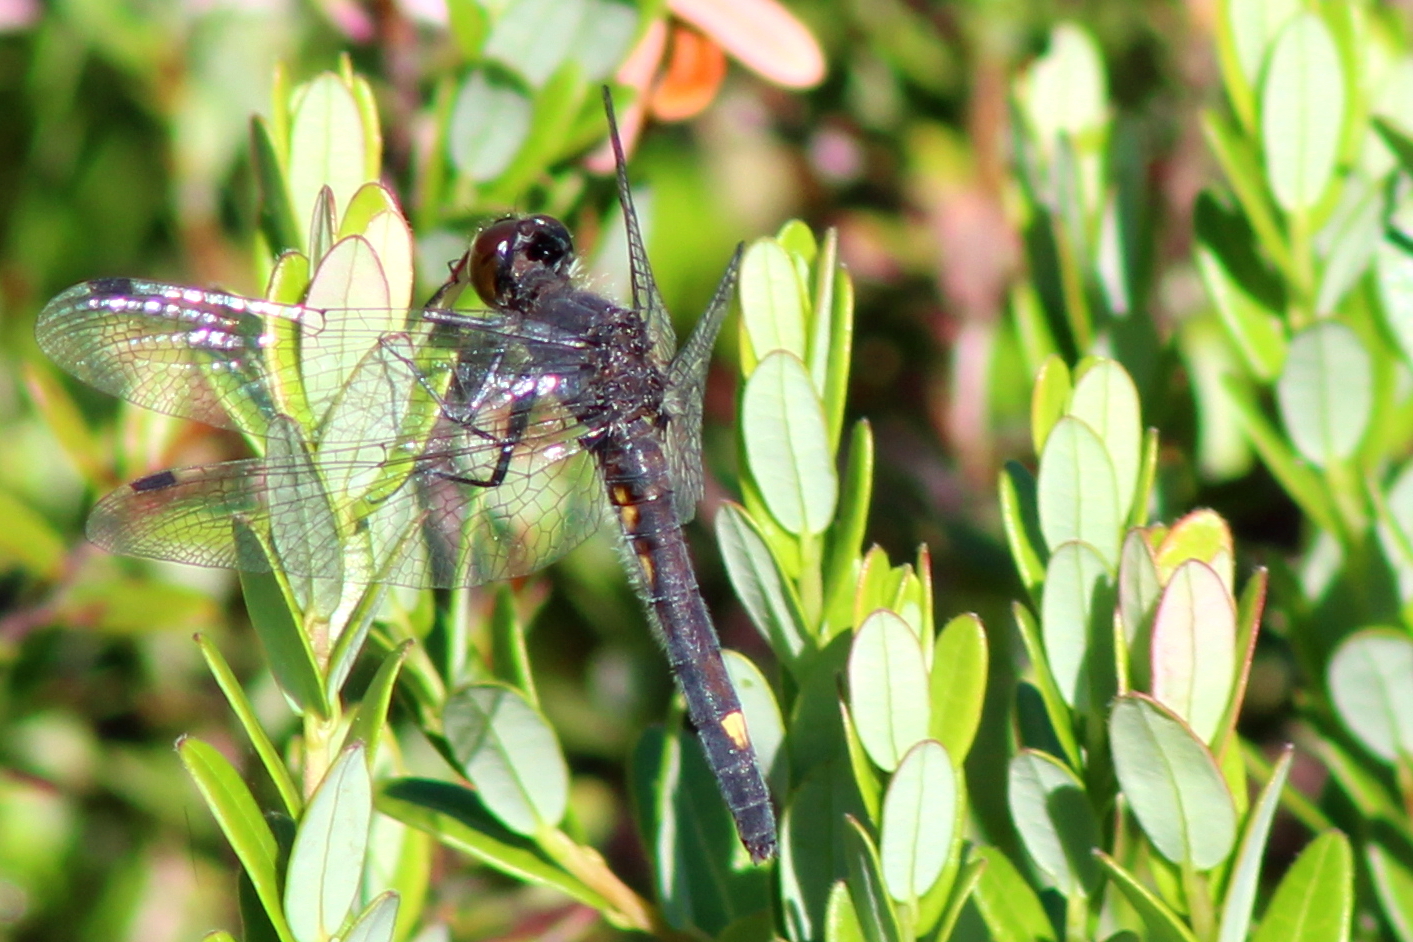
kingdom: Animalia
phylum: Arthropoda
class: Insecta
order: Odonata
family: Libellulidae
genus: Leucorrhinia
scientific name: Leucorrhinia intacta
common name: Dot-tailed whiteface
